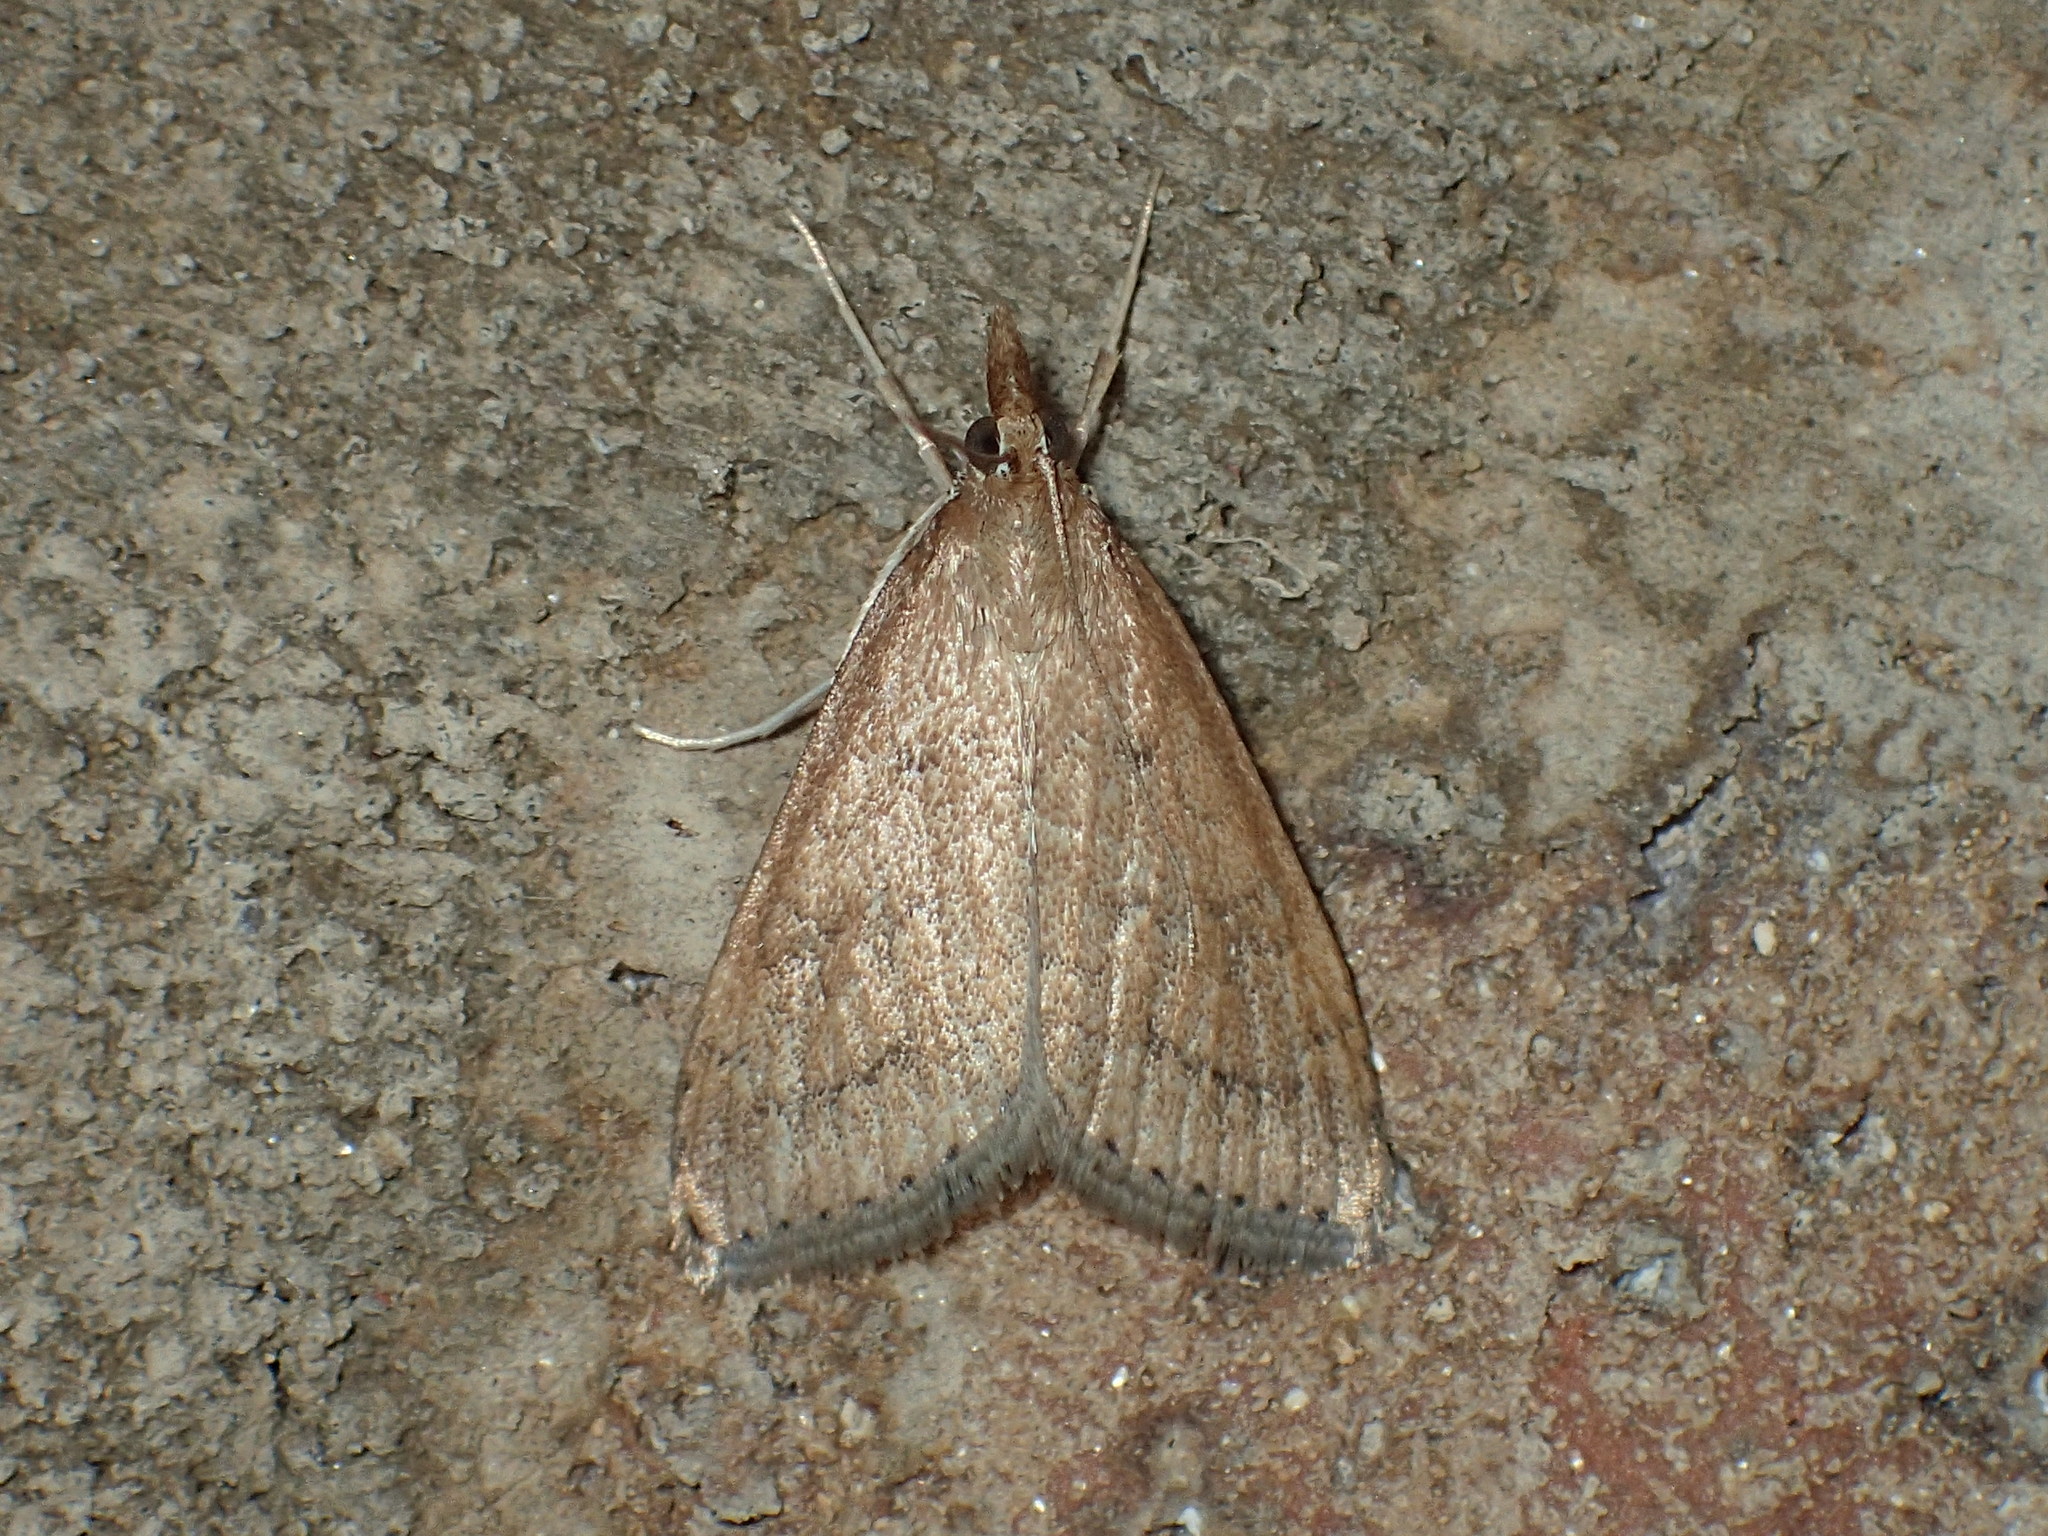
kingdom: Animalia
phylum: Arthropoda
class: Insecta
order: Lepidoptera
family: Crambidae
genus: Udea
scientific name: Udea rubigalis
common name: Celery leaftier moth
